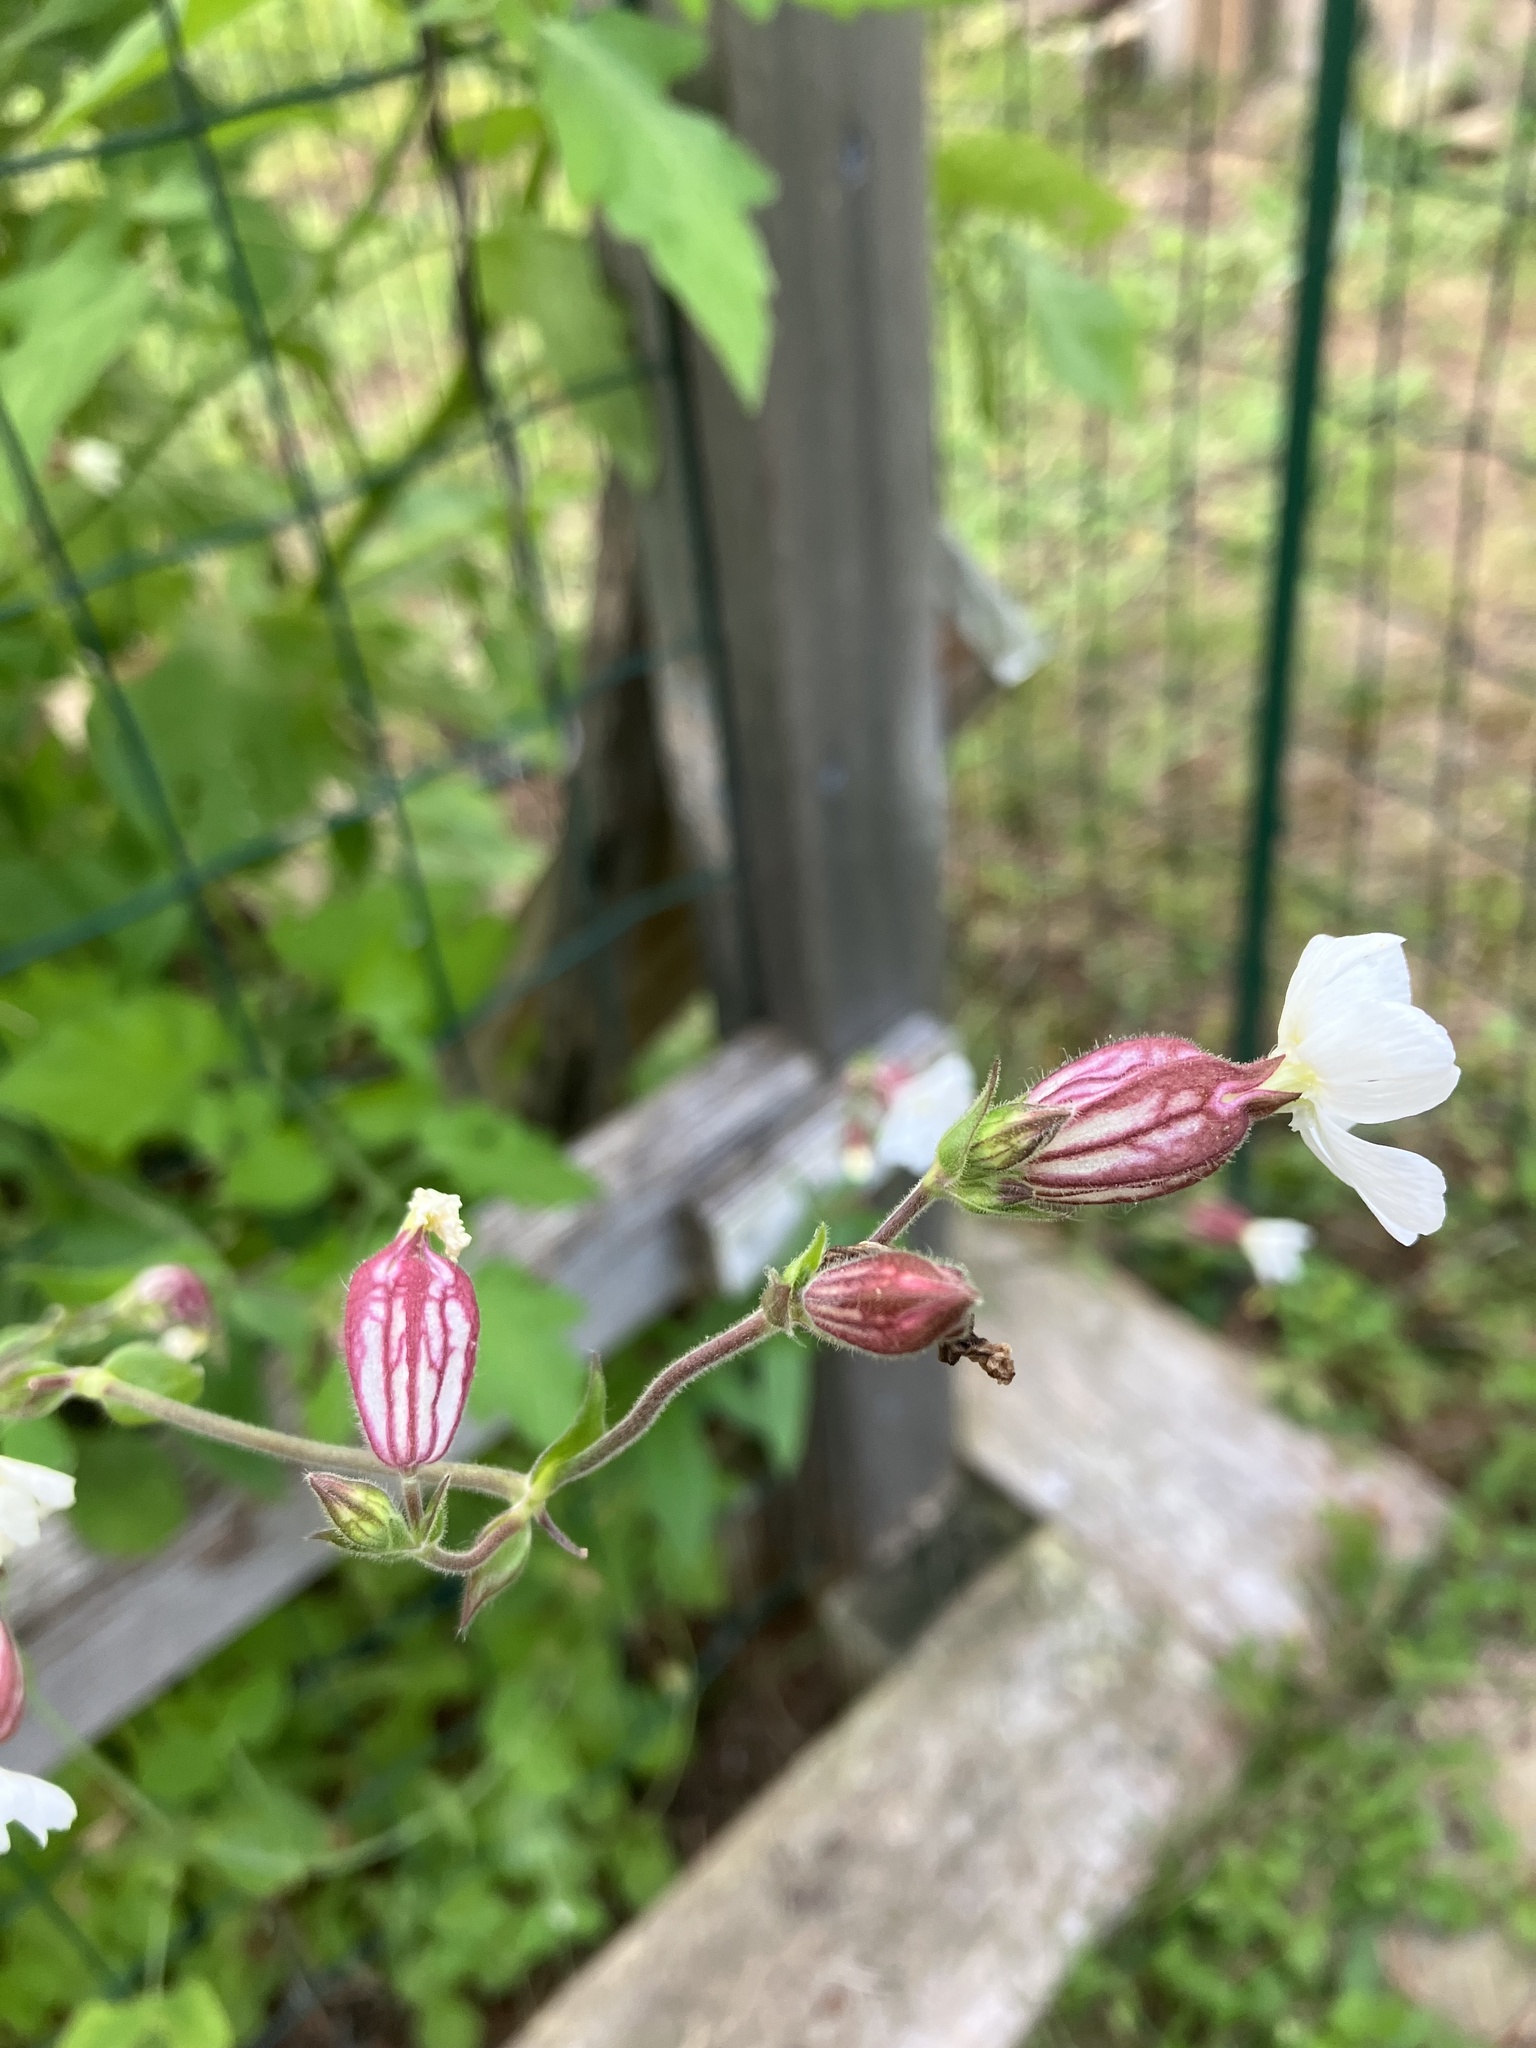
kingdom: Plantae
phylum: Tracheophyta
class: Magnoliopsida
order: Caryophyllales
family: Caryophyllaceae
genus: Silene
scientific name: Silene latifolia
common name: White campion
